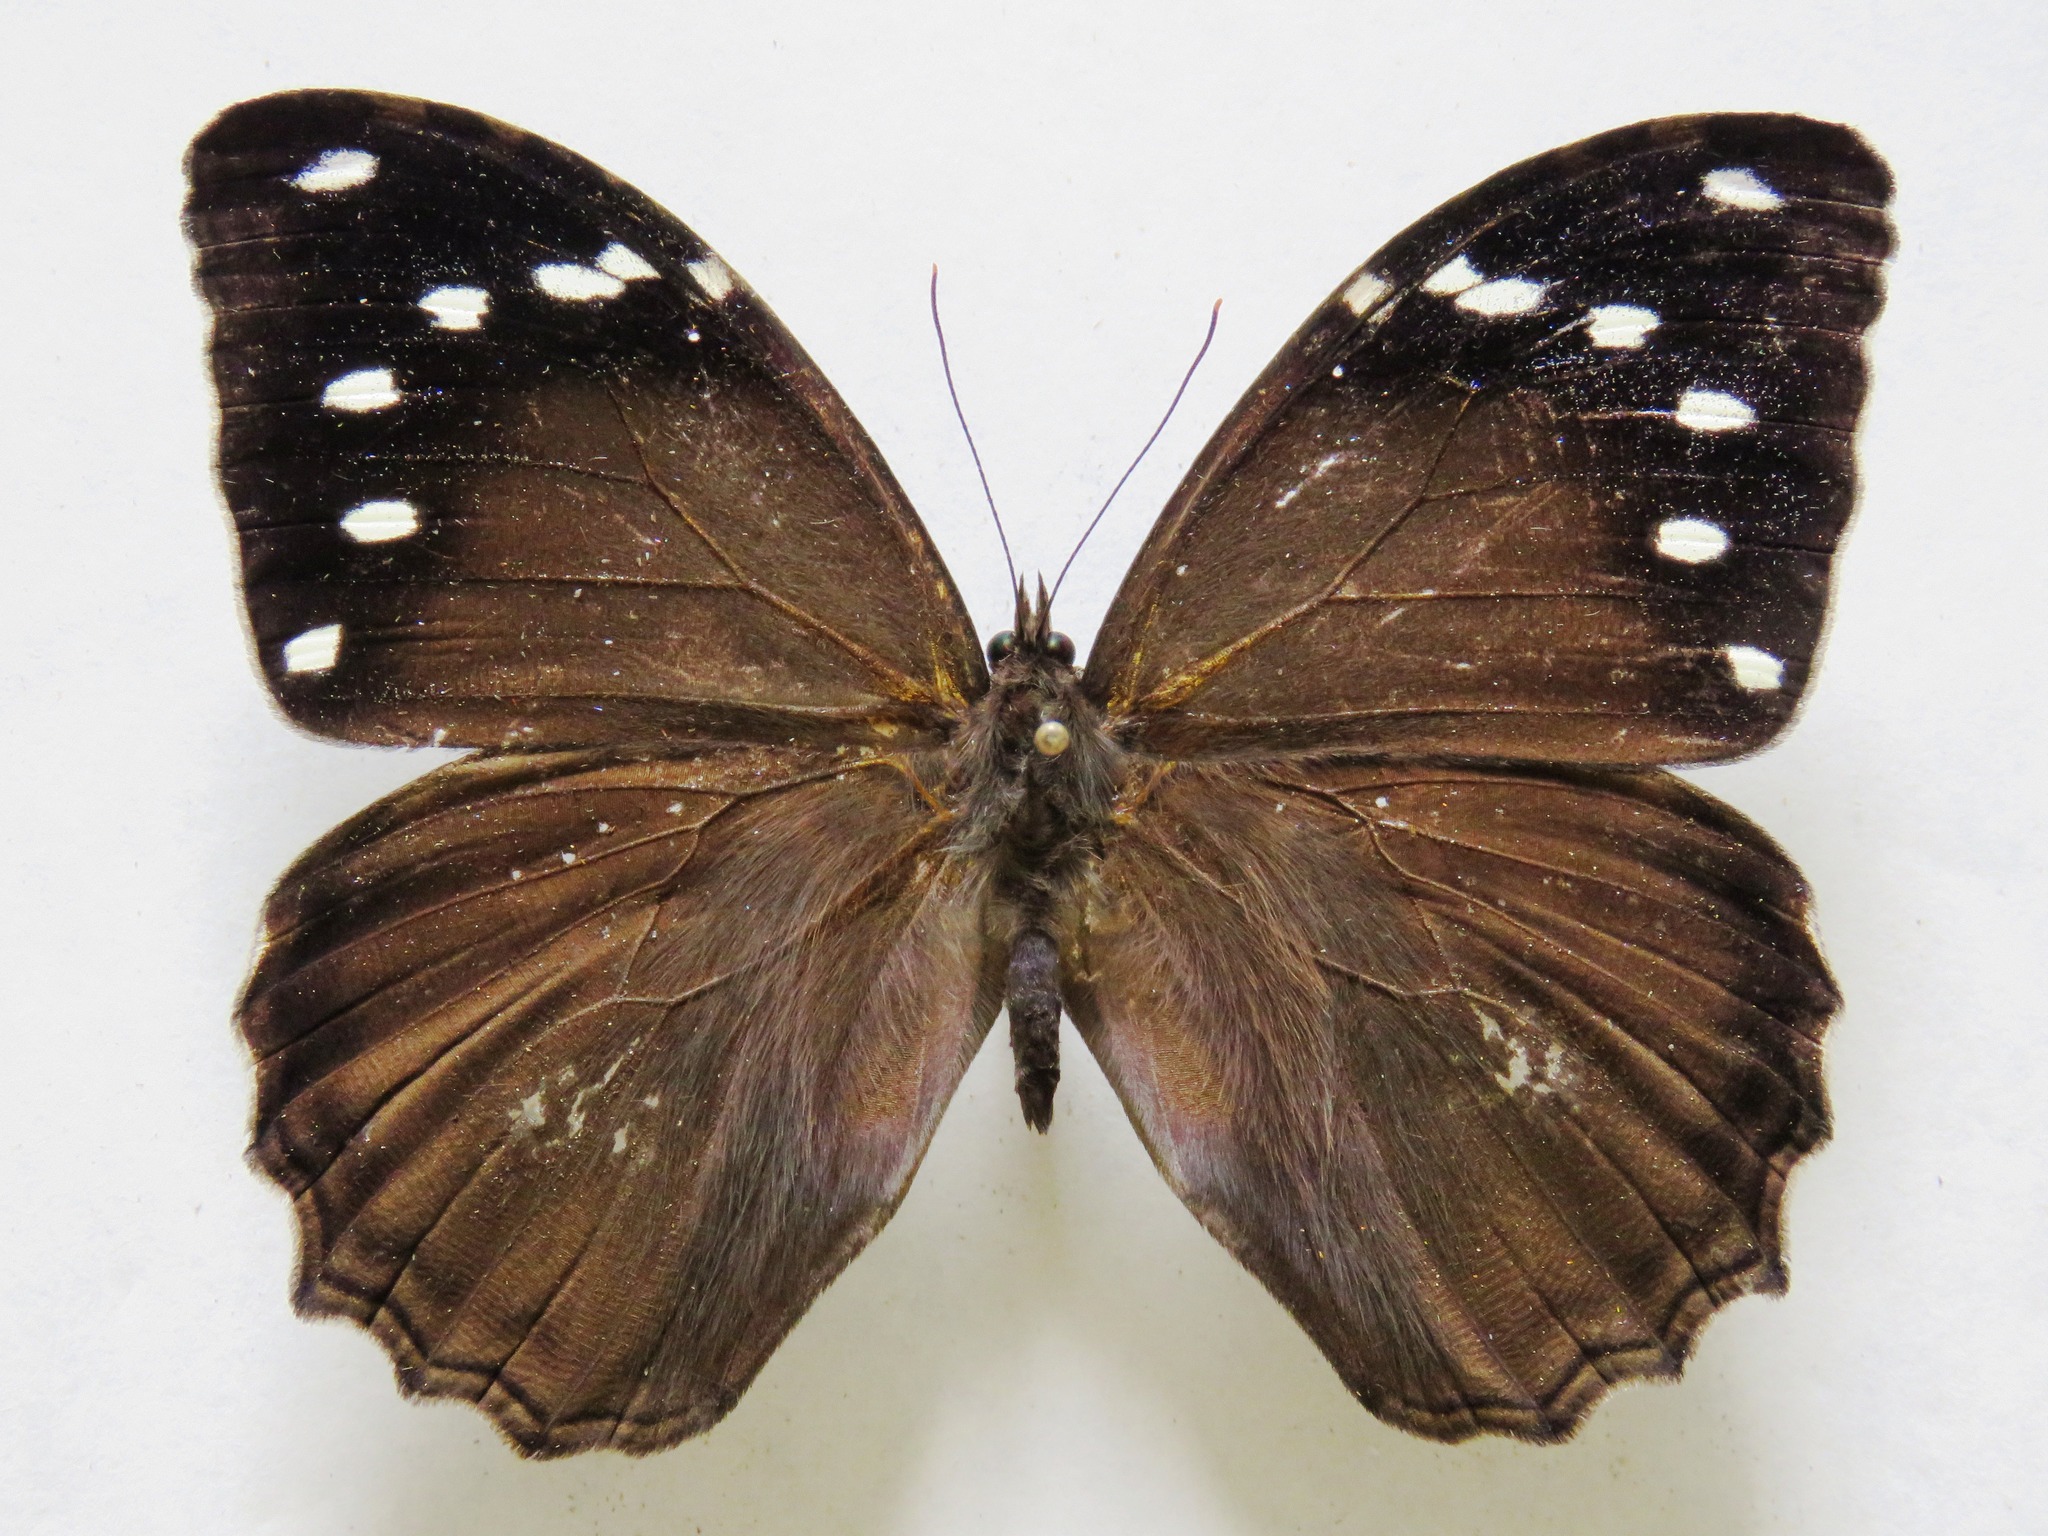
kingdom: Animalia
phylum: Arthropoda
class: Insecta
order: Lepidoptera
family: Nymphalidae
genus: Manataria
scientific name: Manataria maculata
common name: White-spotted satyr
